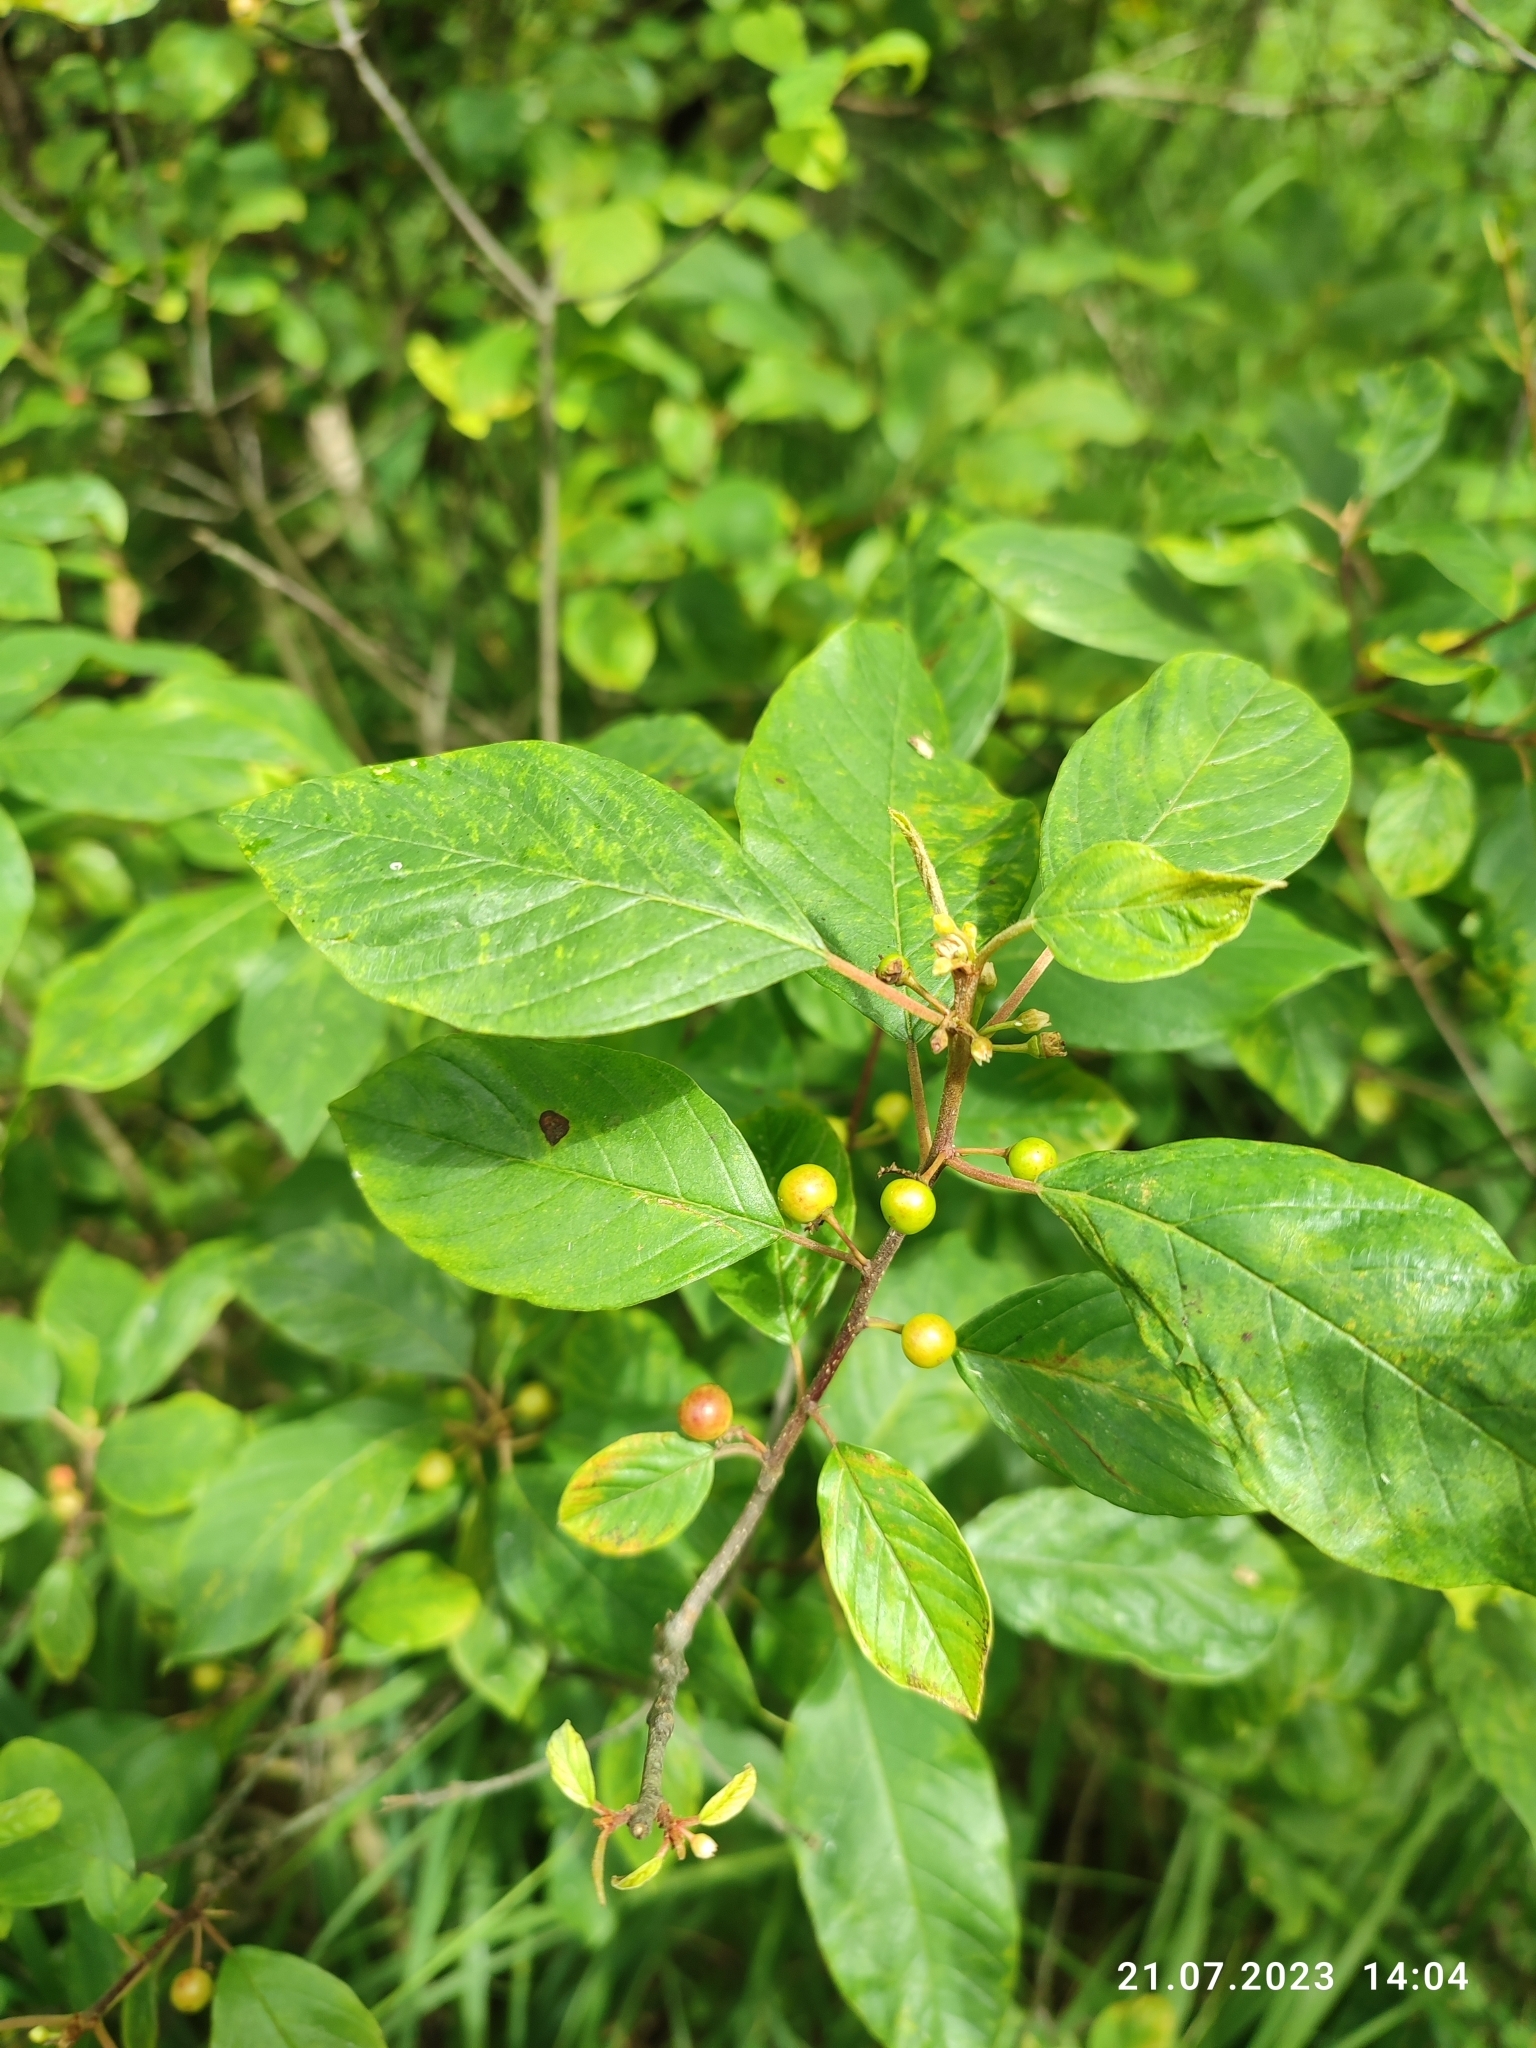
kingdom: Plantae
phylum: Tracheophyta
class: Magnoliopsida
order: Rosales
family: Rhamnaceae
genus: Frangula
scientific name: Frangula alnus
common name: Alder buckthorn
